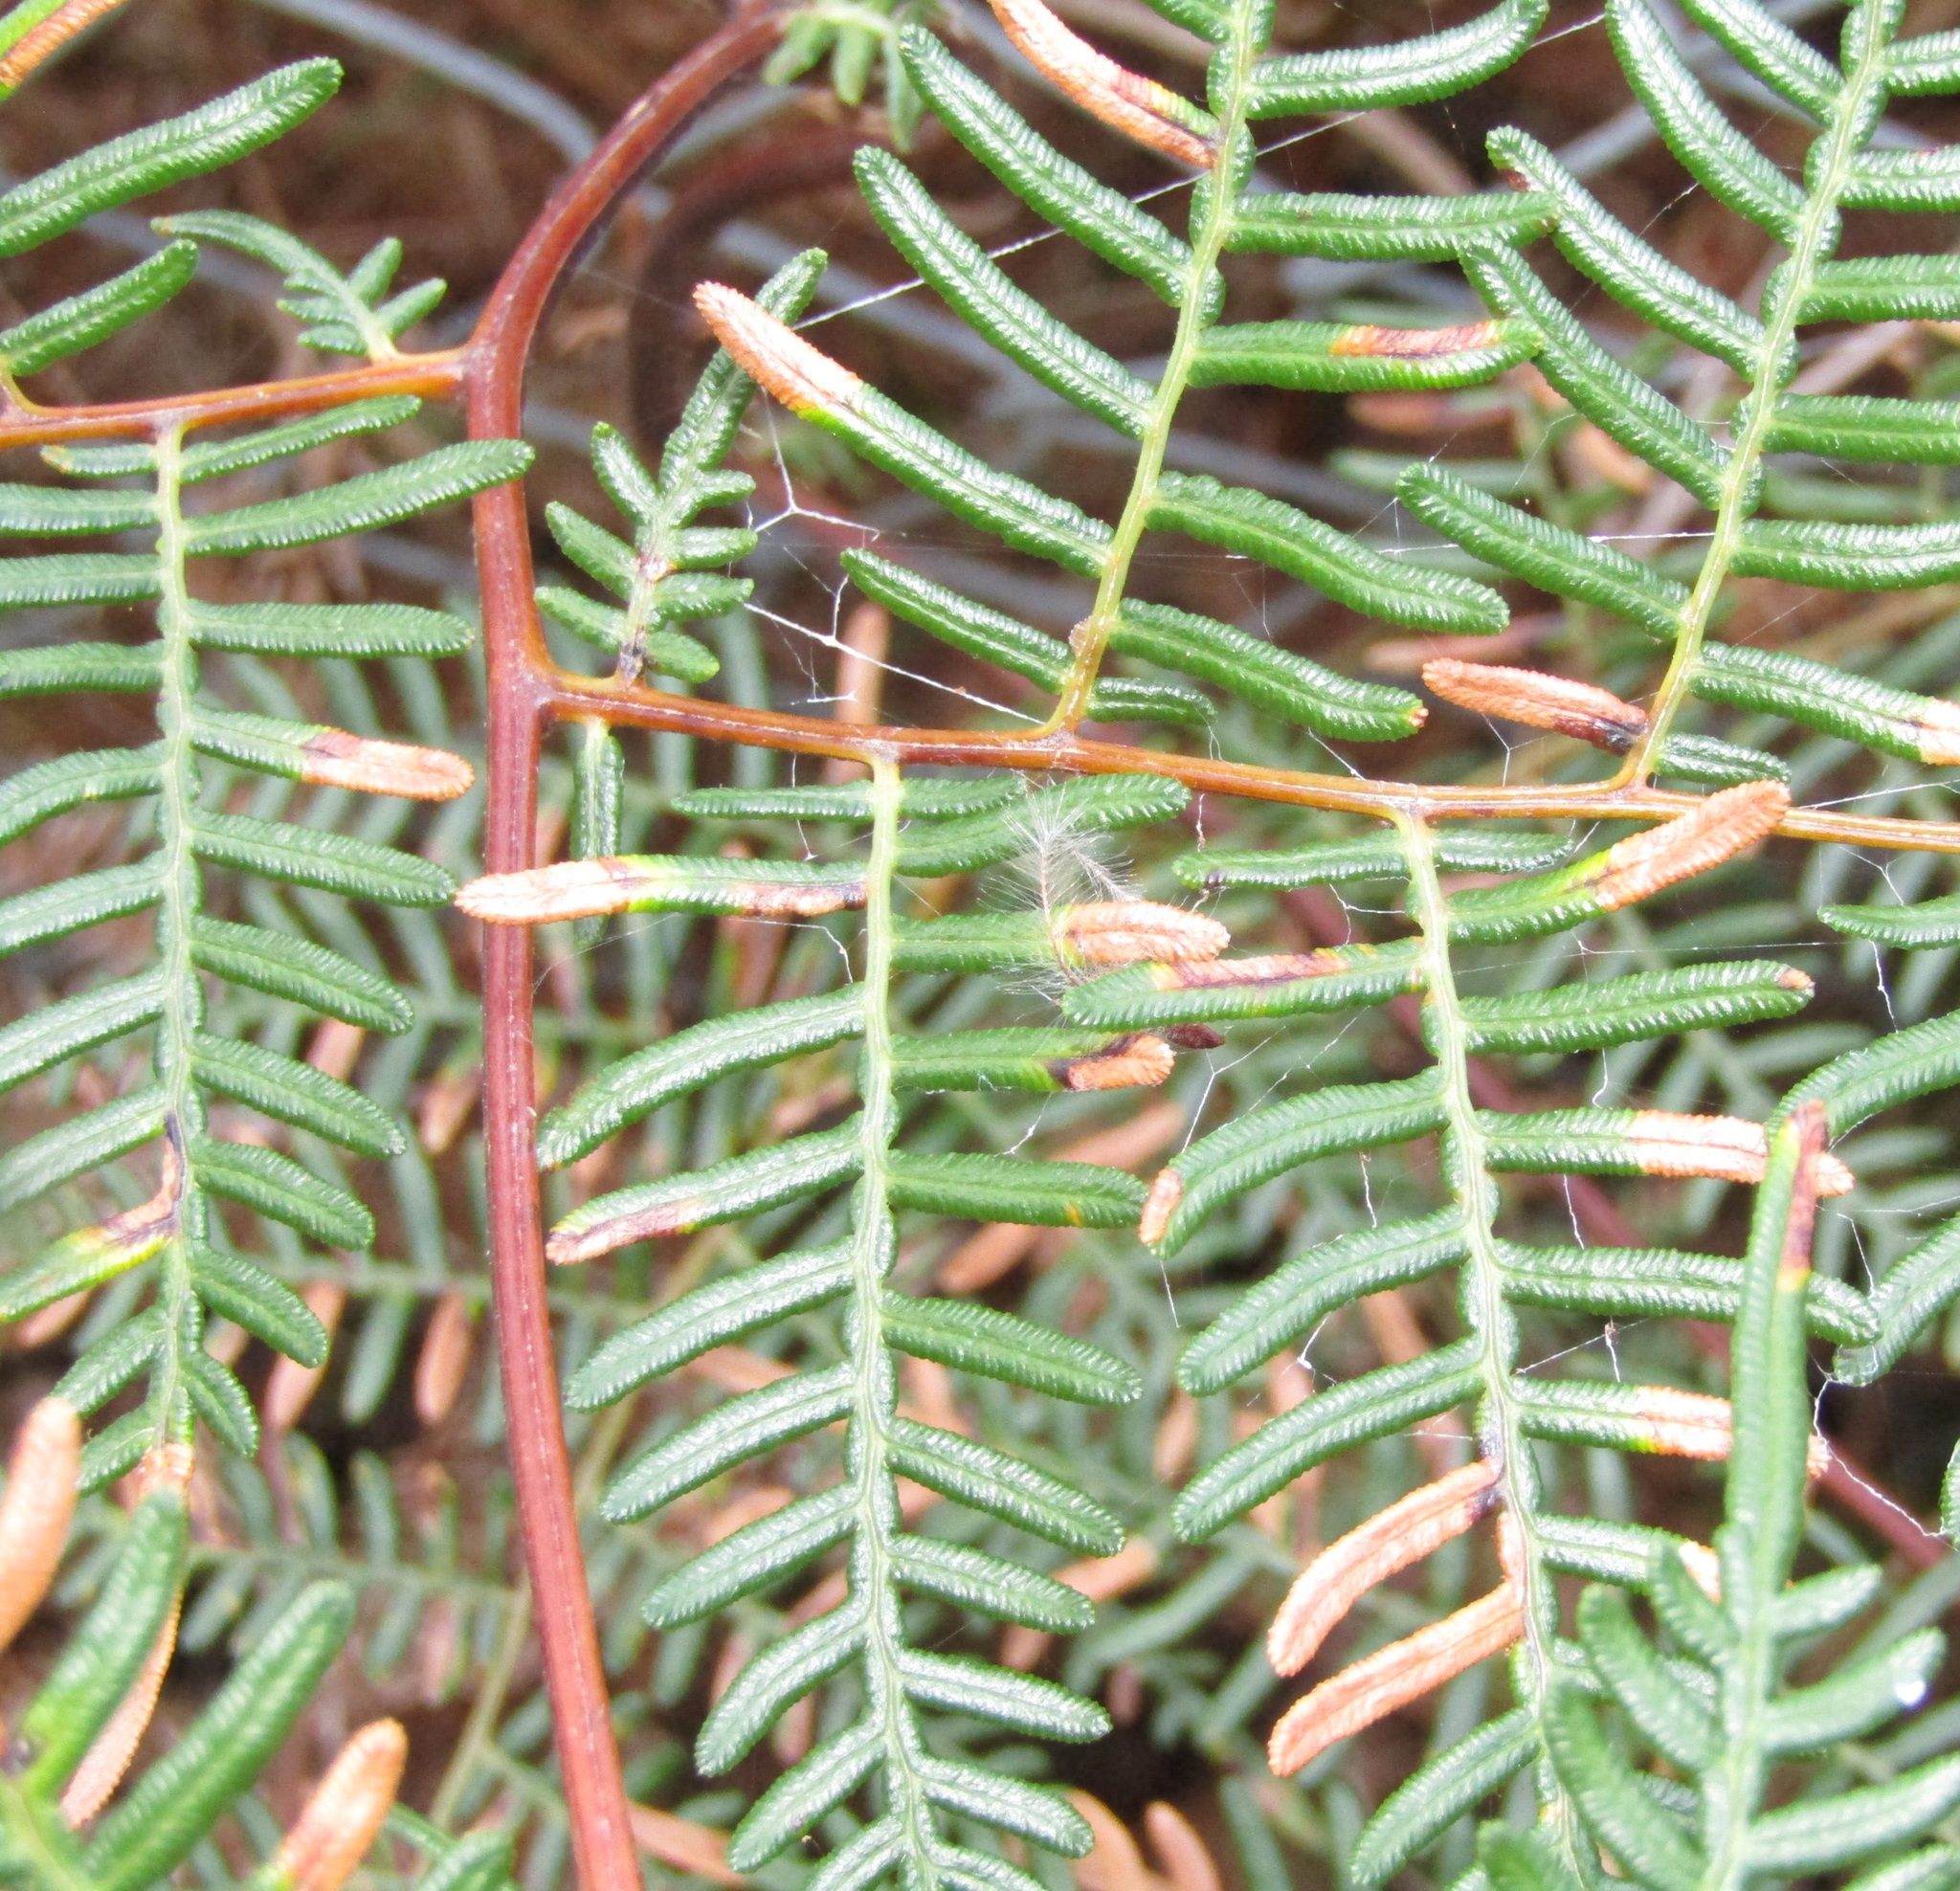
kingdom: Plantae
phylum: Tracheophyta
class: Polypodiopsida
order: Polypodiales
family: Dennstaedtiaceae
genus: Pteridium
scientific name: Pteridium esculentum
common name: Bracken fern
